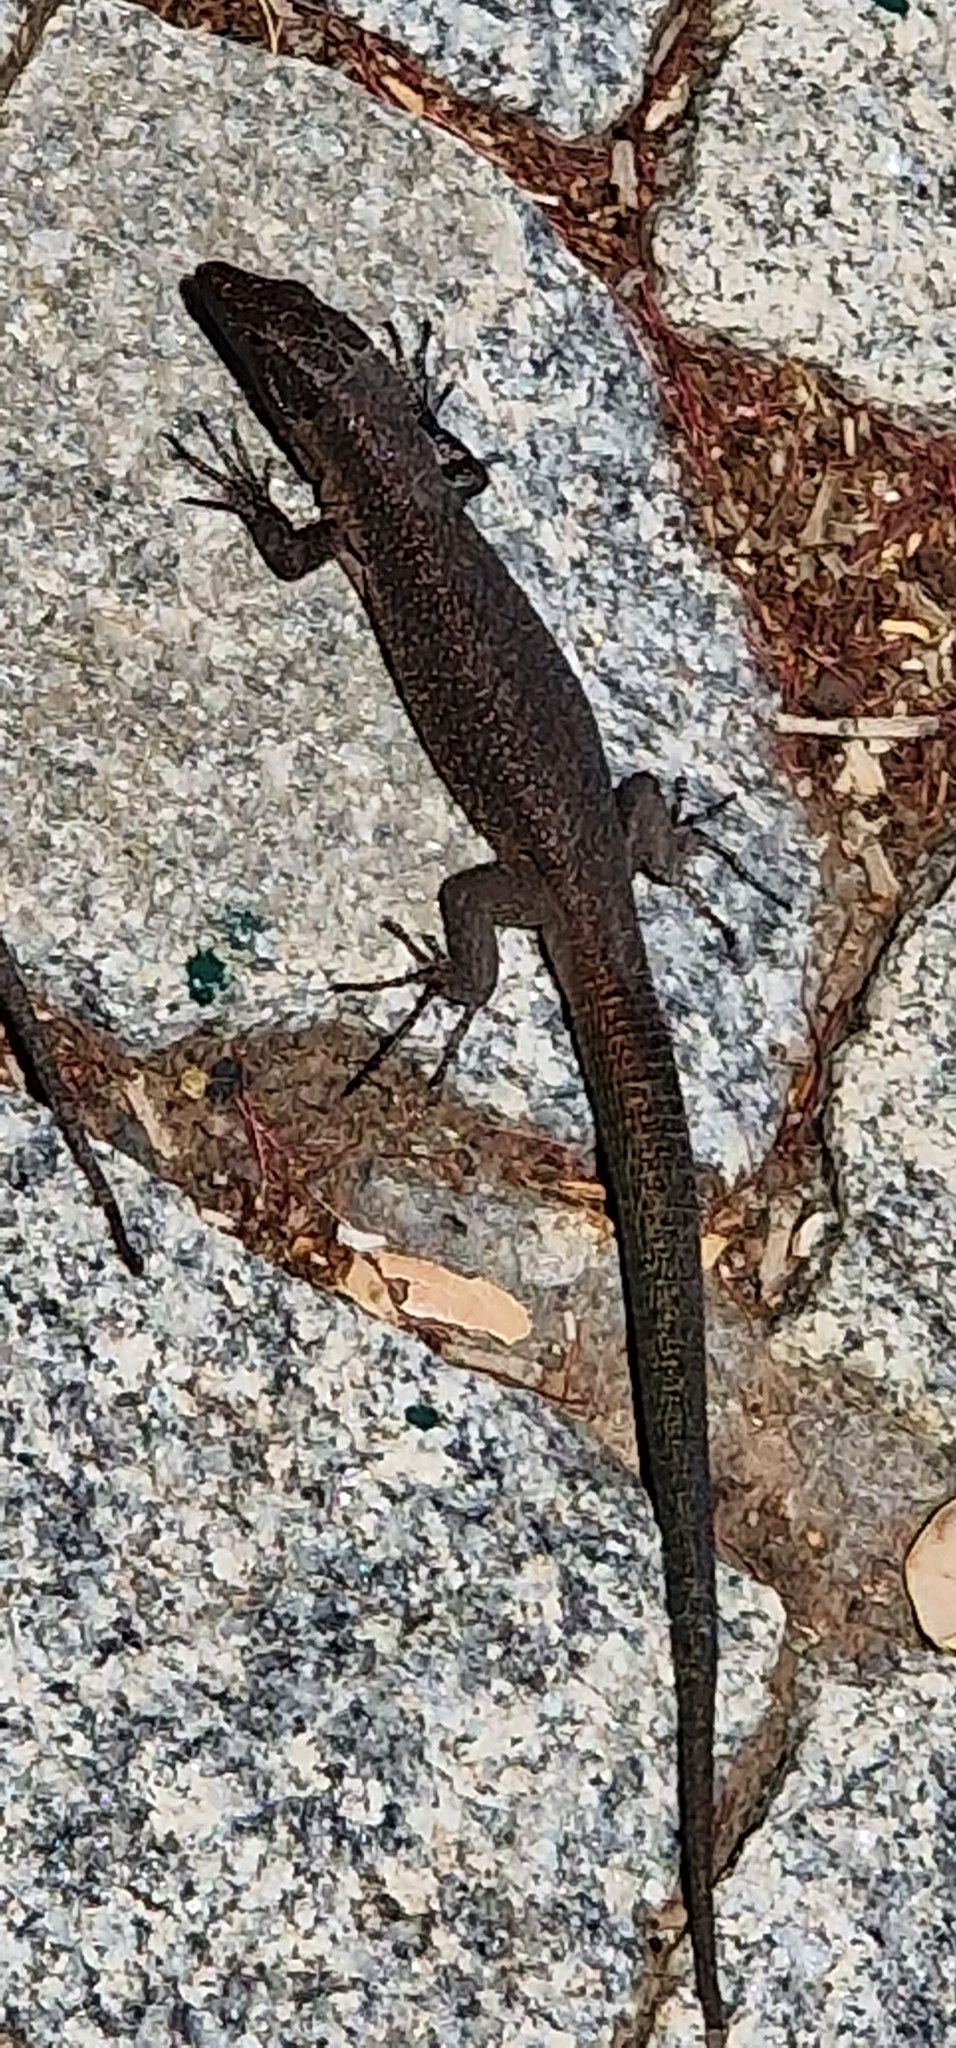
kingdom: Animalia
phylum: Chordata
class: Squamata
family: Lacertidae
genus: Teira
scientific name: Teira dugesii
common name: Madeira lizard
